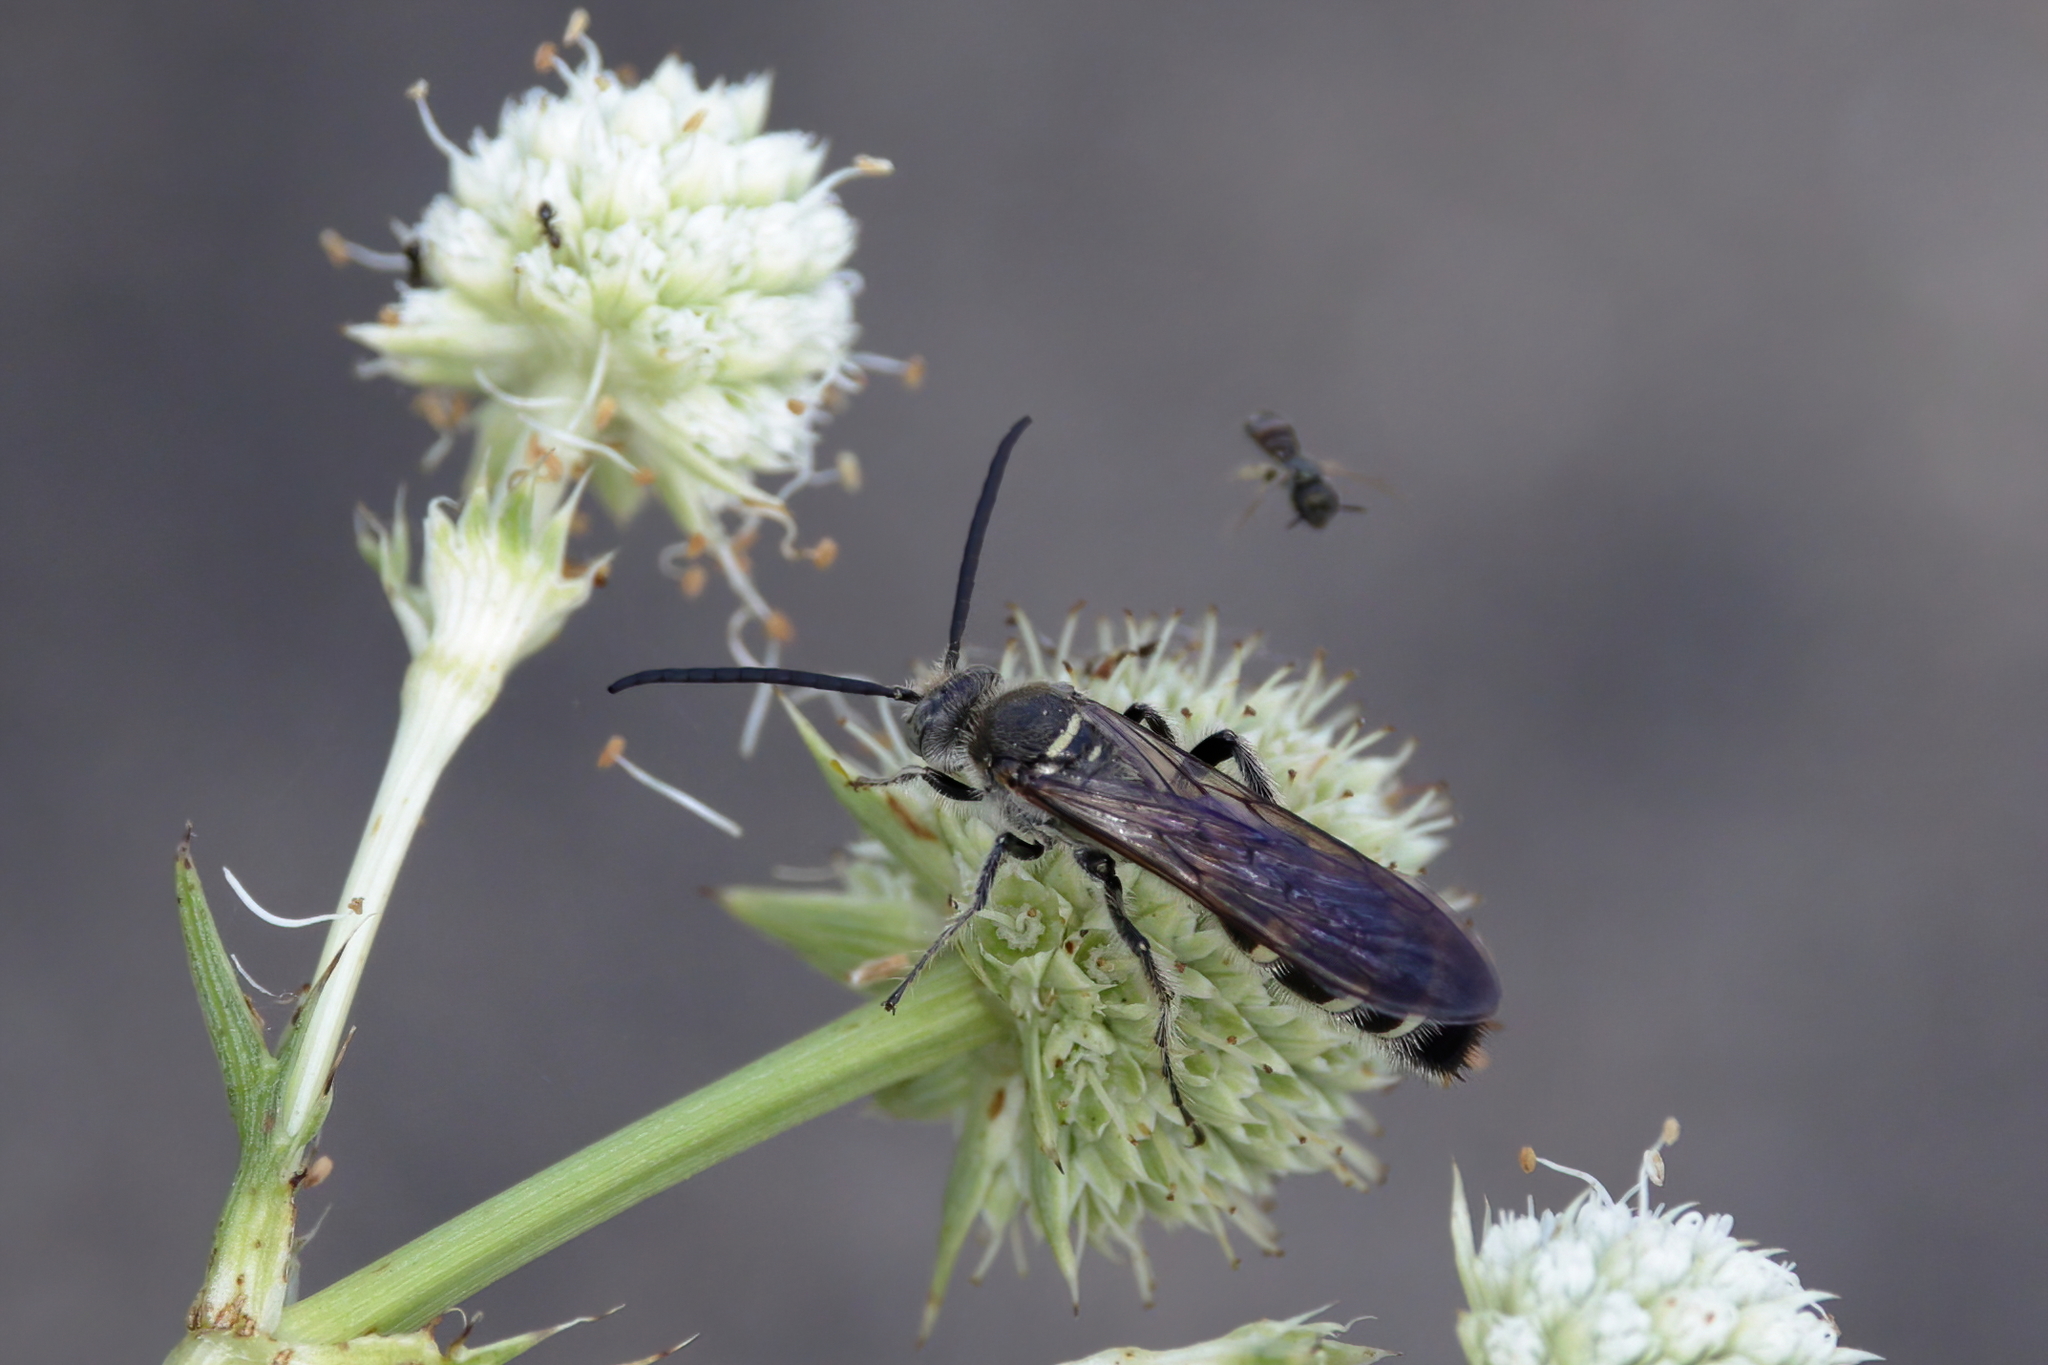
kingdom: Animalia
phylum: Arthropoda
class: Insecta
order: Hymenoptera
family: Scoliidae
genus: Dielis
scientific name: Dielis
